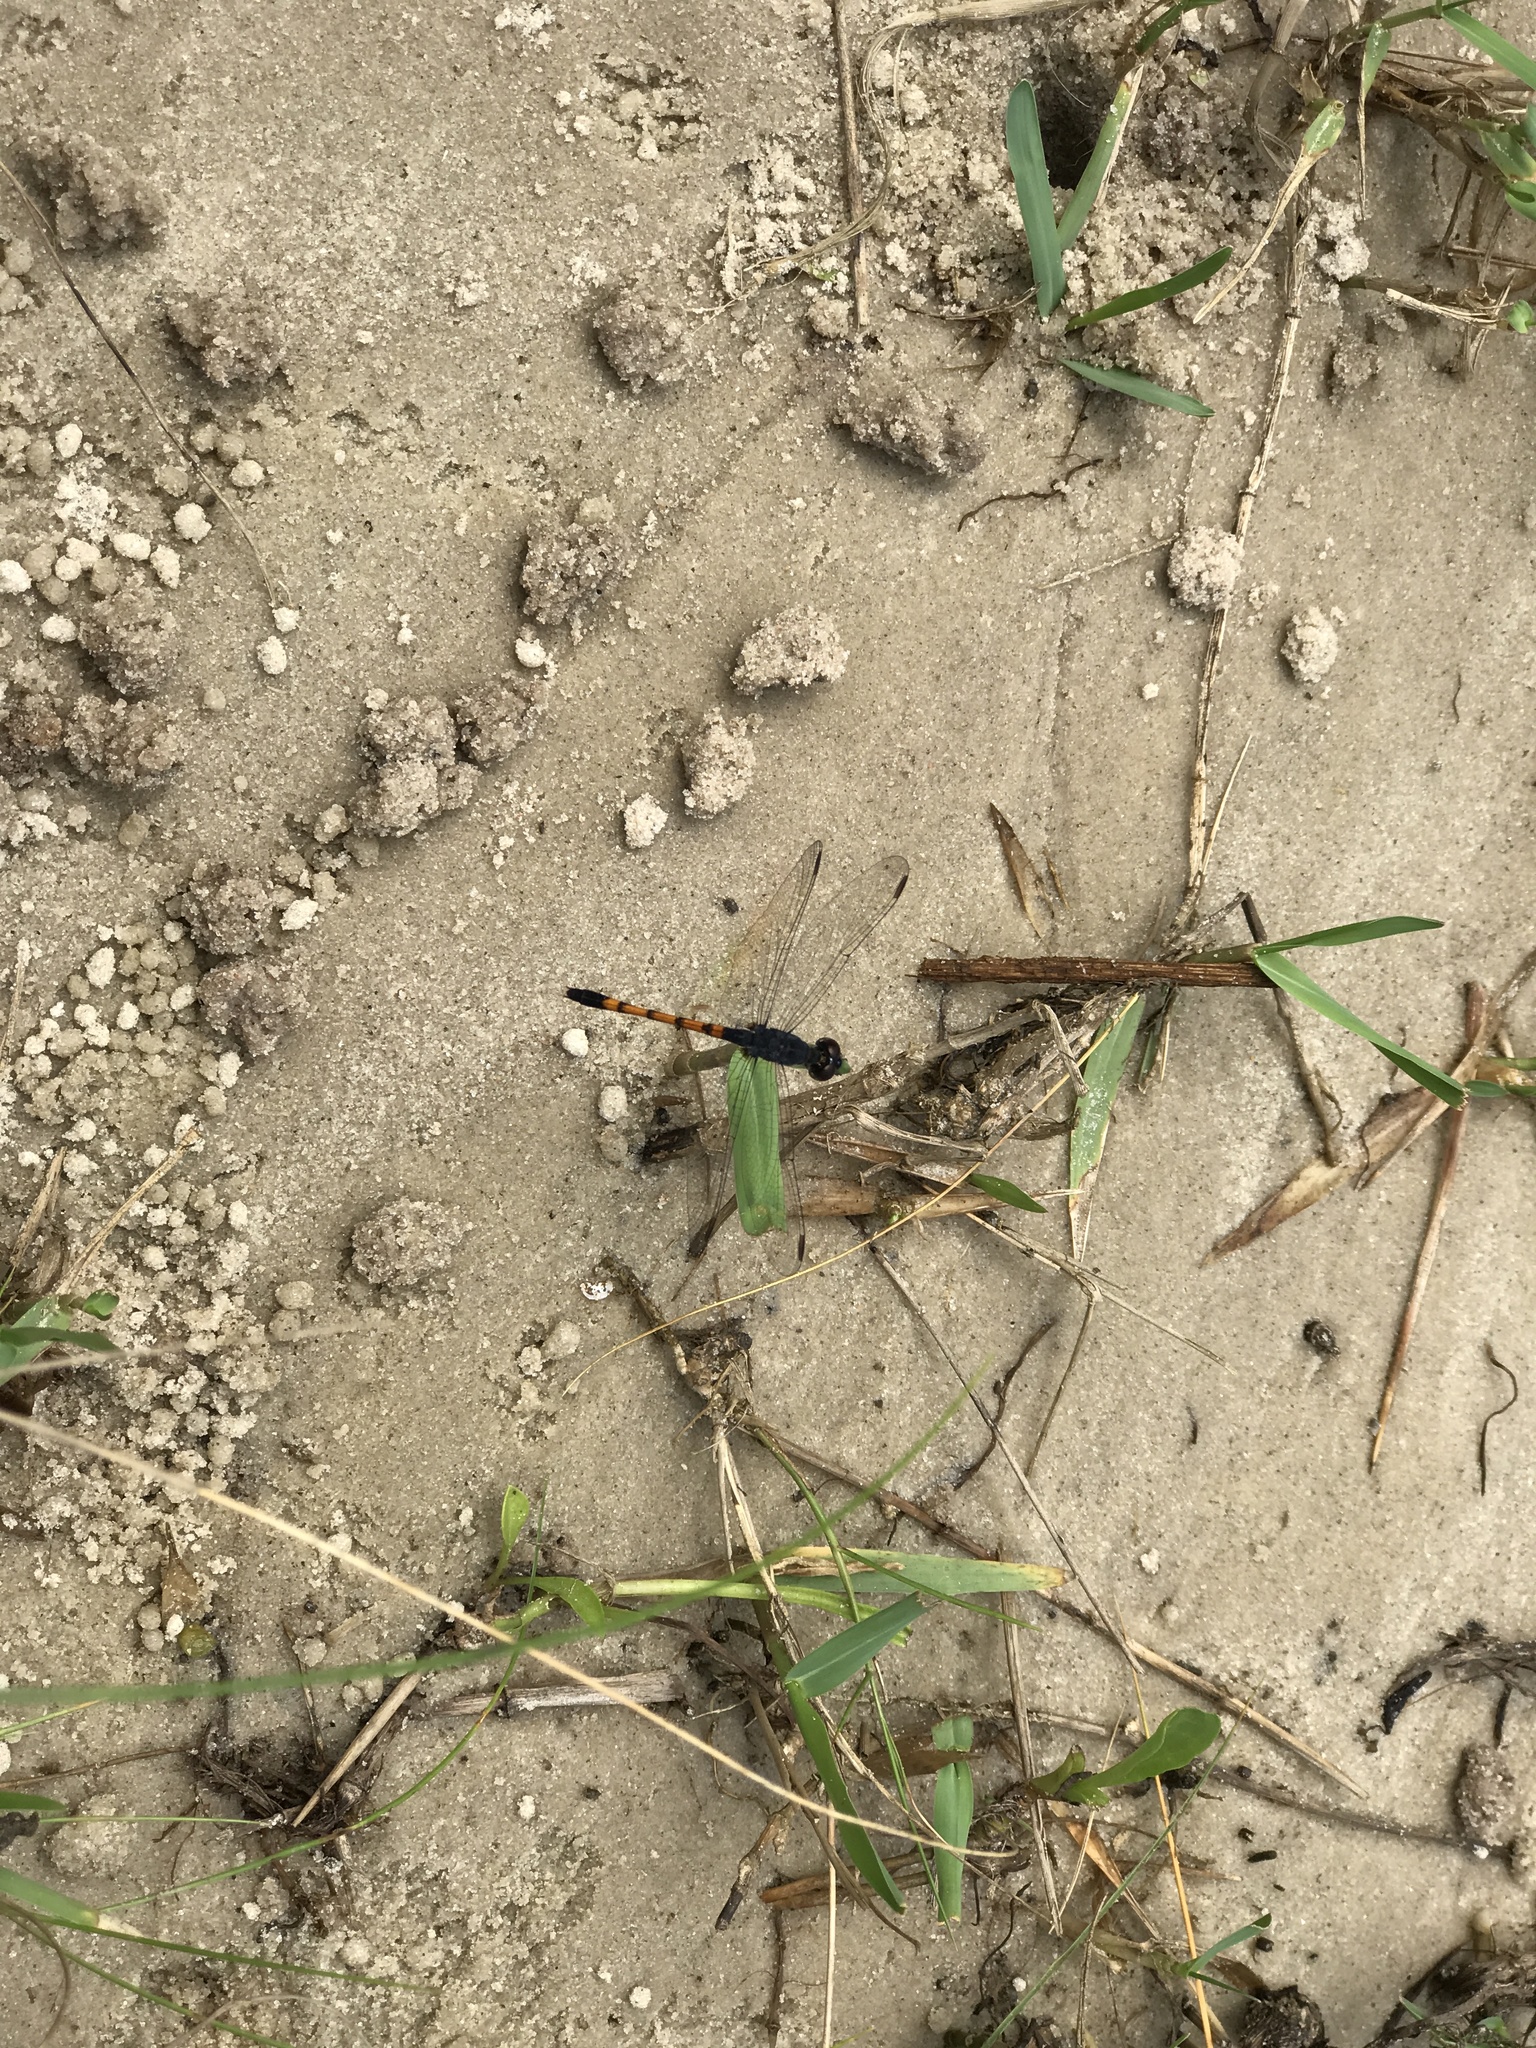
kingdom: Animalia
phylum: Arthropoda
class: Insecta
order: Odonata
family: Libellulidae
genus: Erythrodiplax
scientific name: Erythrodiplax berenice
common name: Seaside dragonlet
